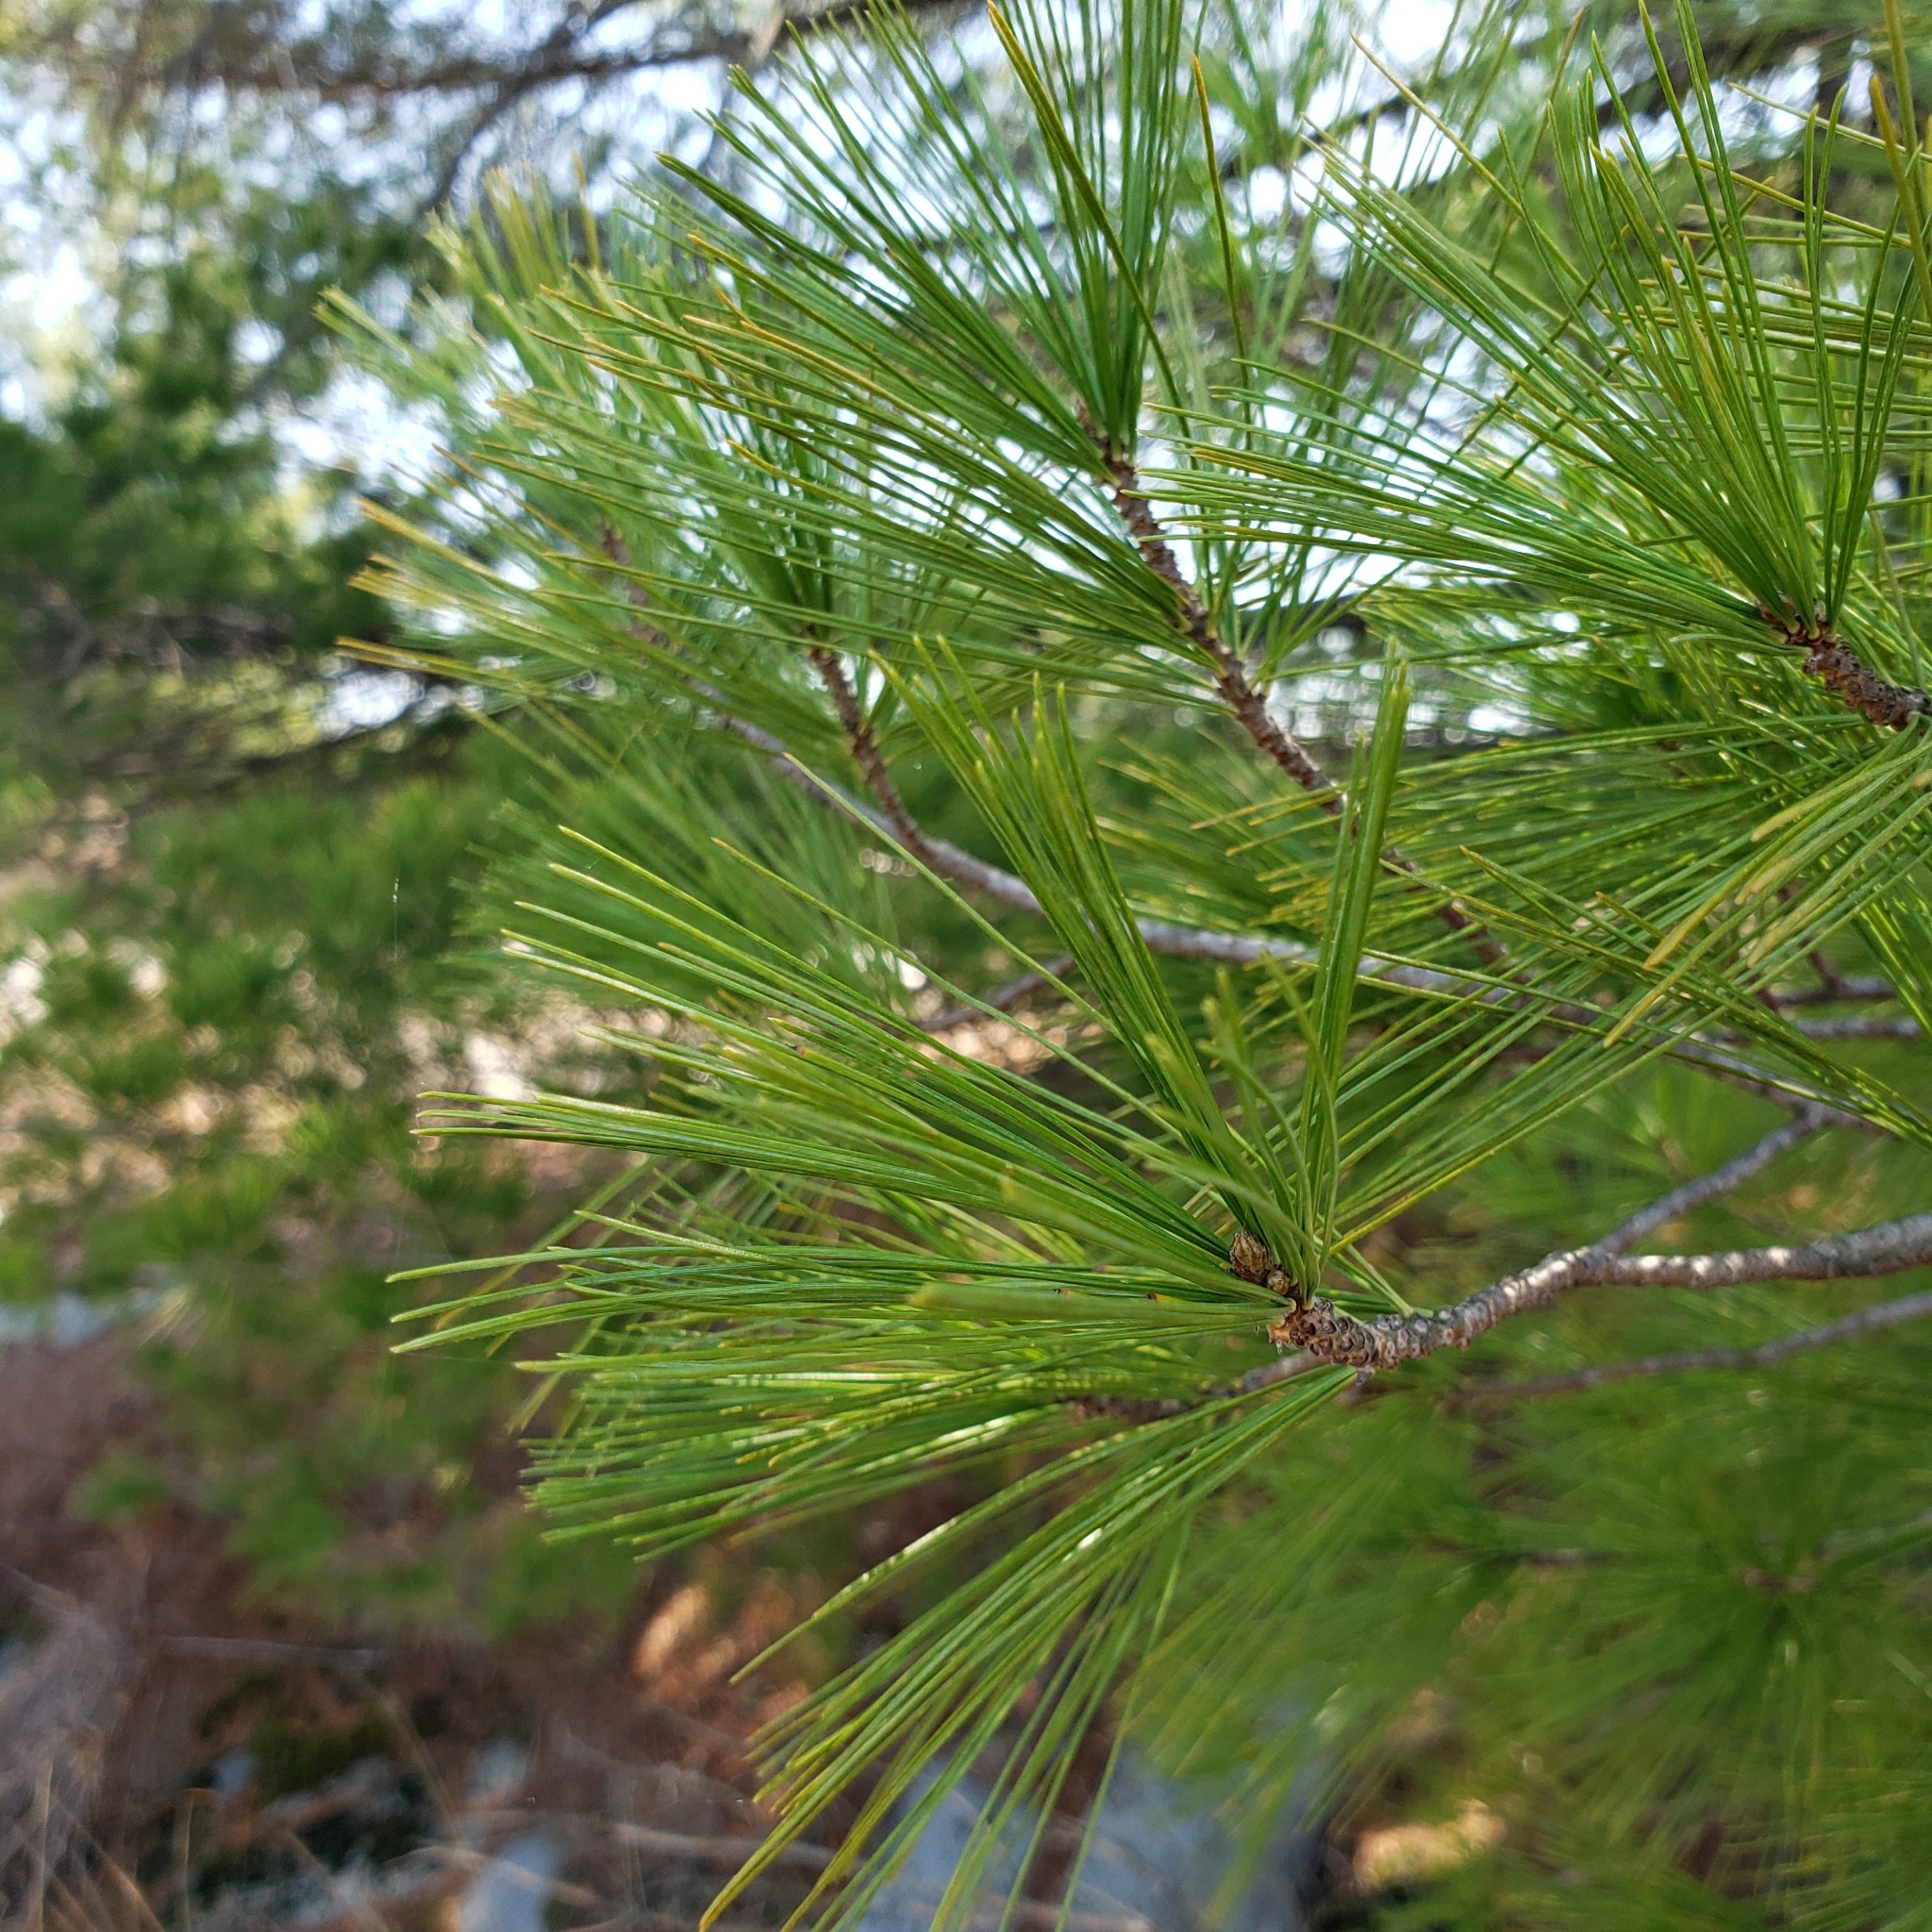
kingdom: Plantae
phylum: Tracheophyta
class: Pinopsida
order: Pinales
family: Pinaceae
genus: Pinus
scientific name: Pinus strobus
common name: Weymouth pine
